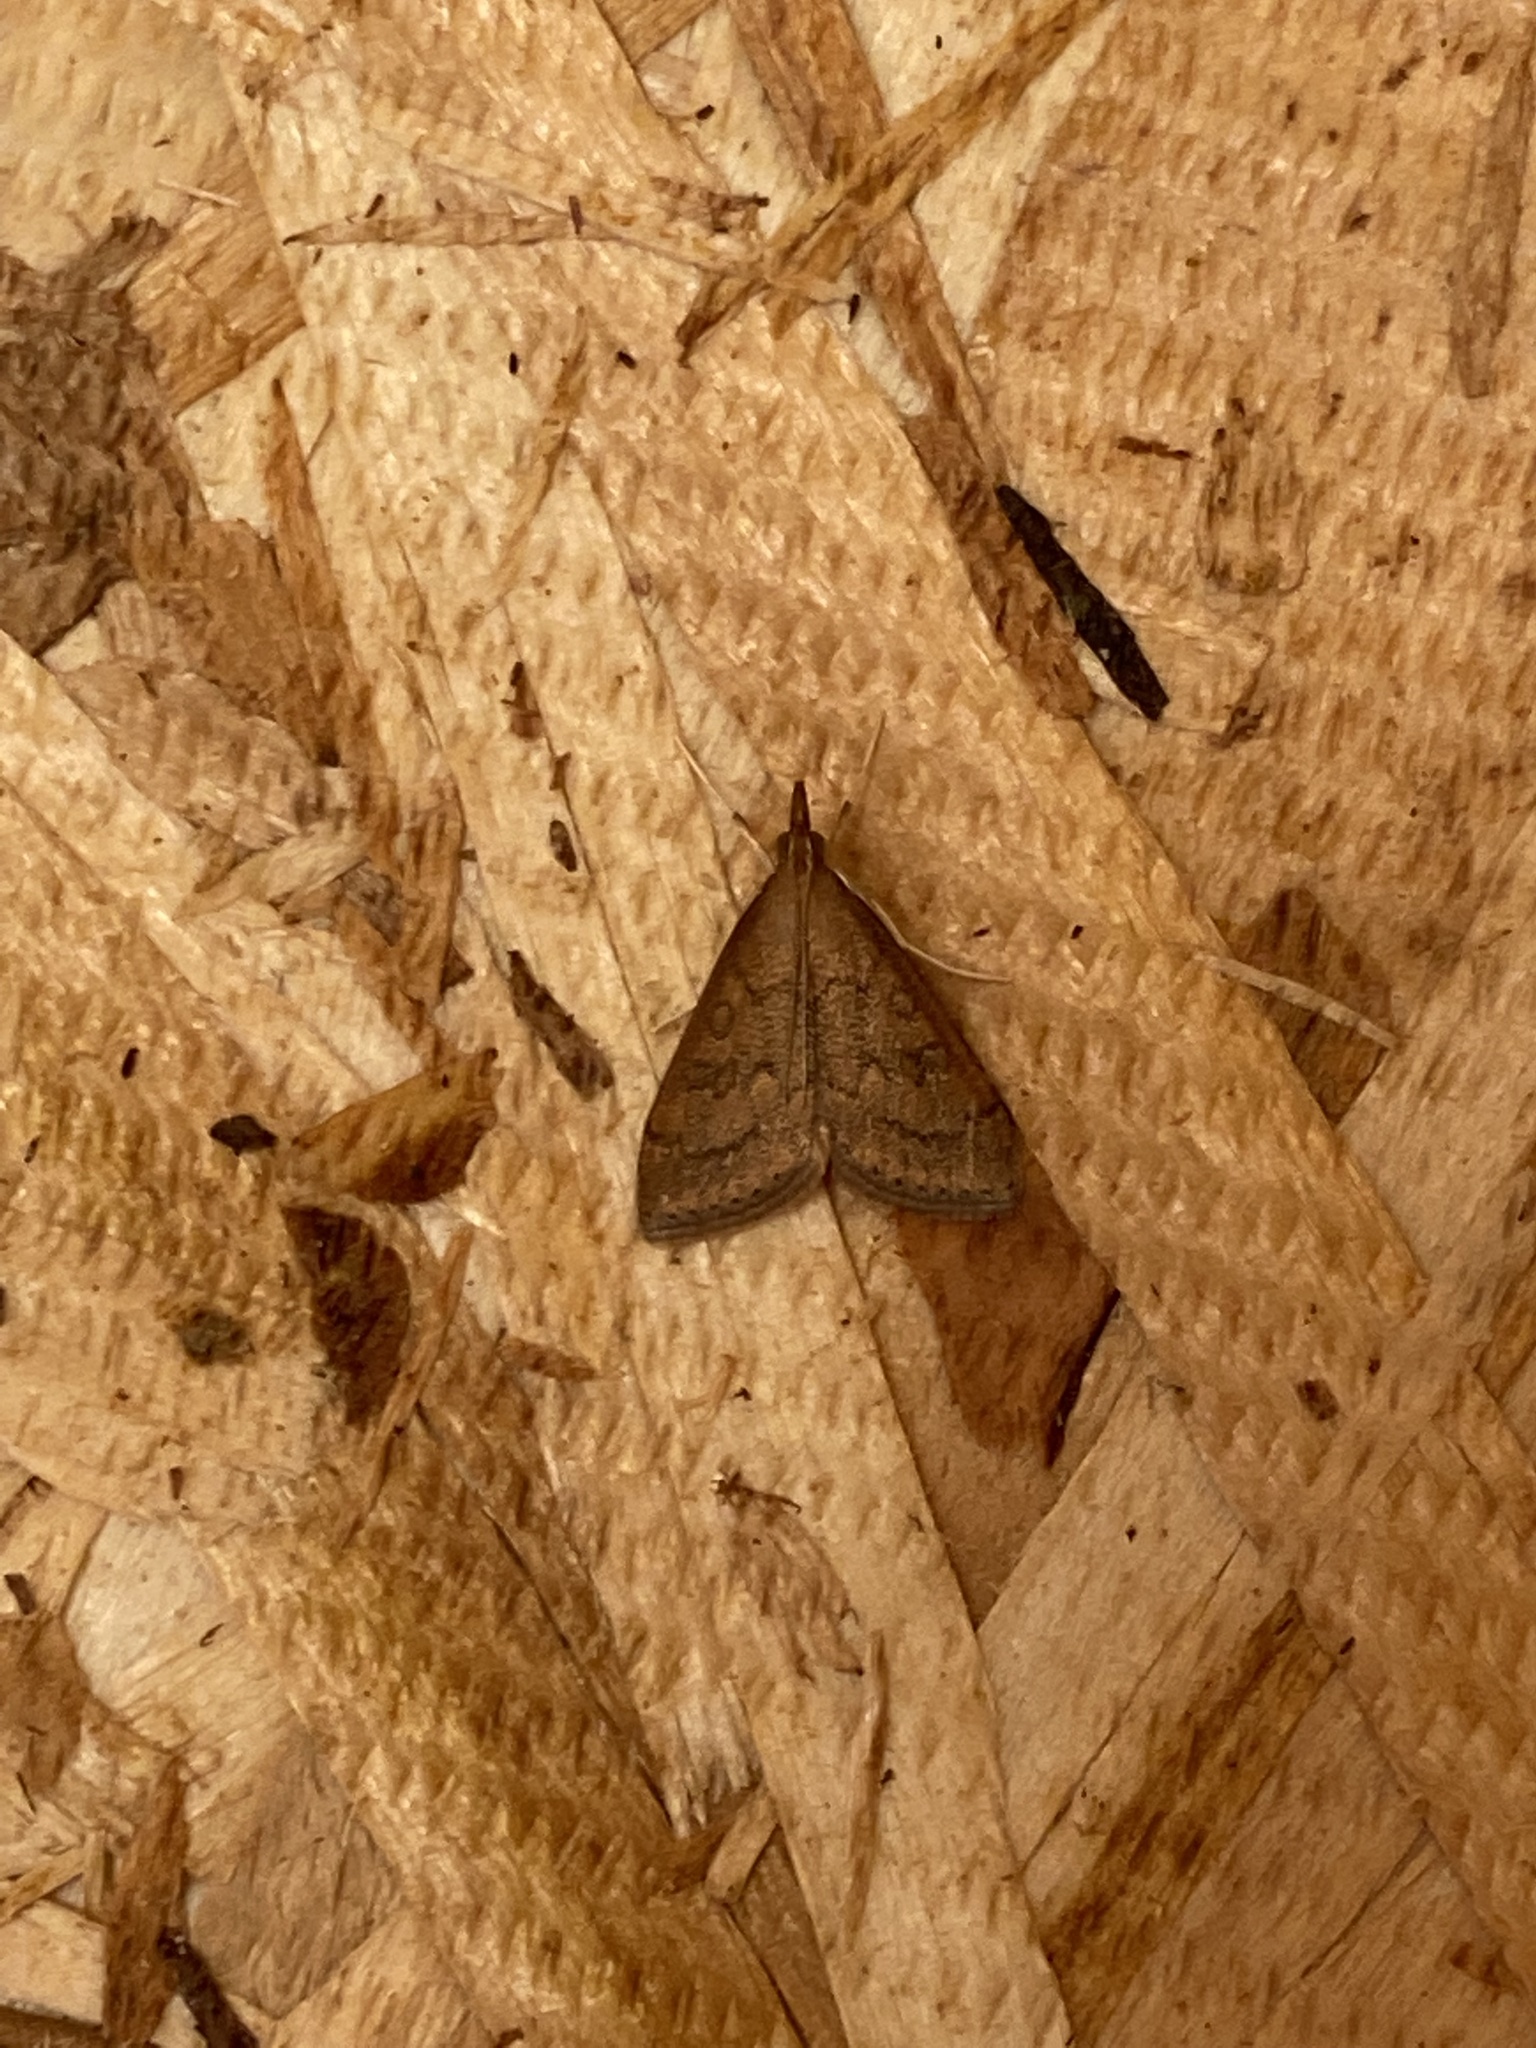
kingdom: Animalia
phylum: Arthropoda
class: Insecta
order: Lepidoptera
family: Crambidae
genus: Udea
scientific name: Udea rubigalis
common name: Celery leaftier moth
